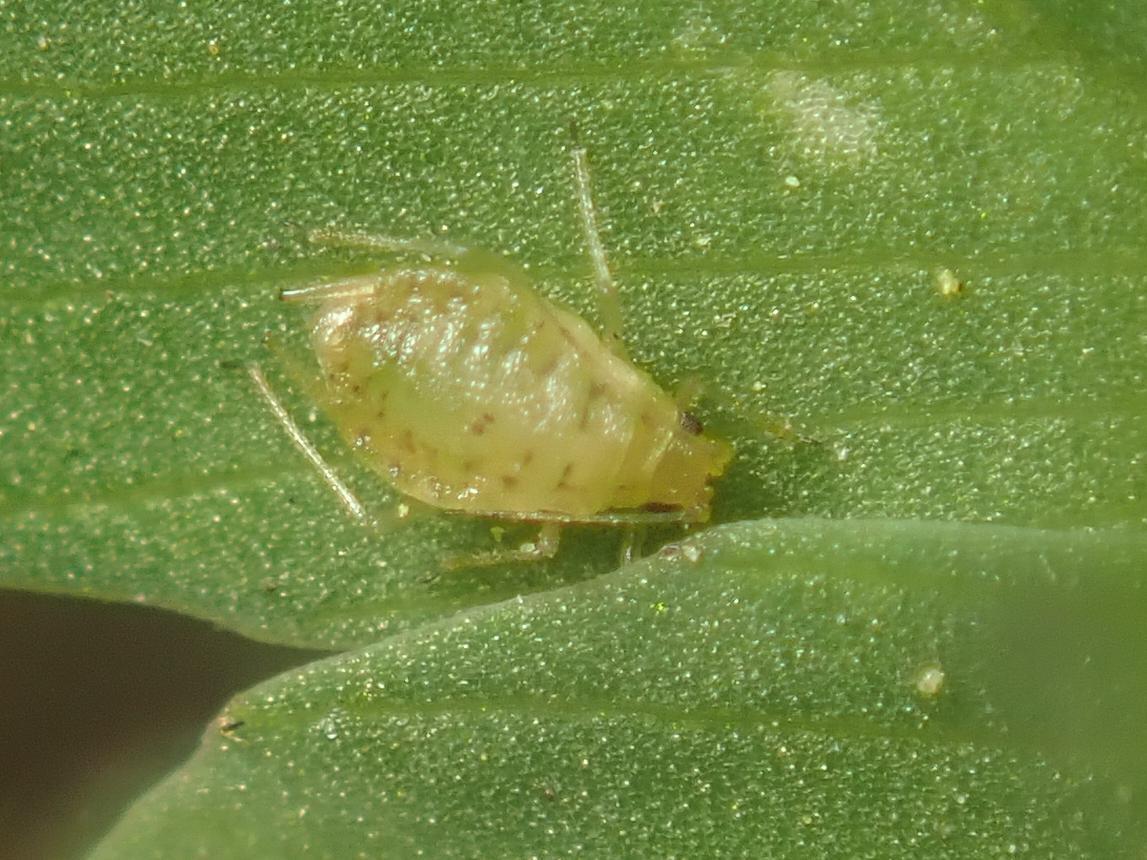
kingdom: Animalia
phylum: Arthropoda
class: Insecta
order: Hemiptera
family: Aphididae
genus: Myzus
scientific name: Myzus ornatus
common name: Ornate aphid
